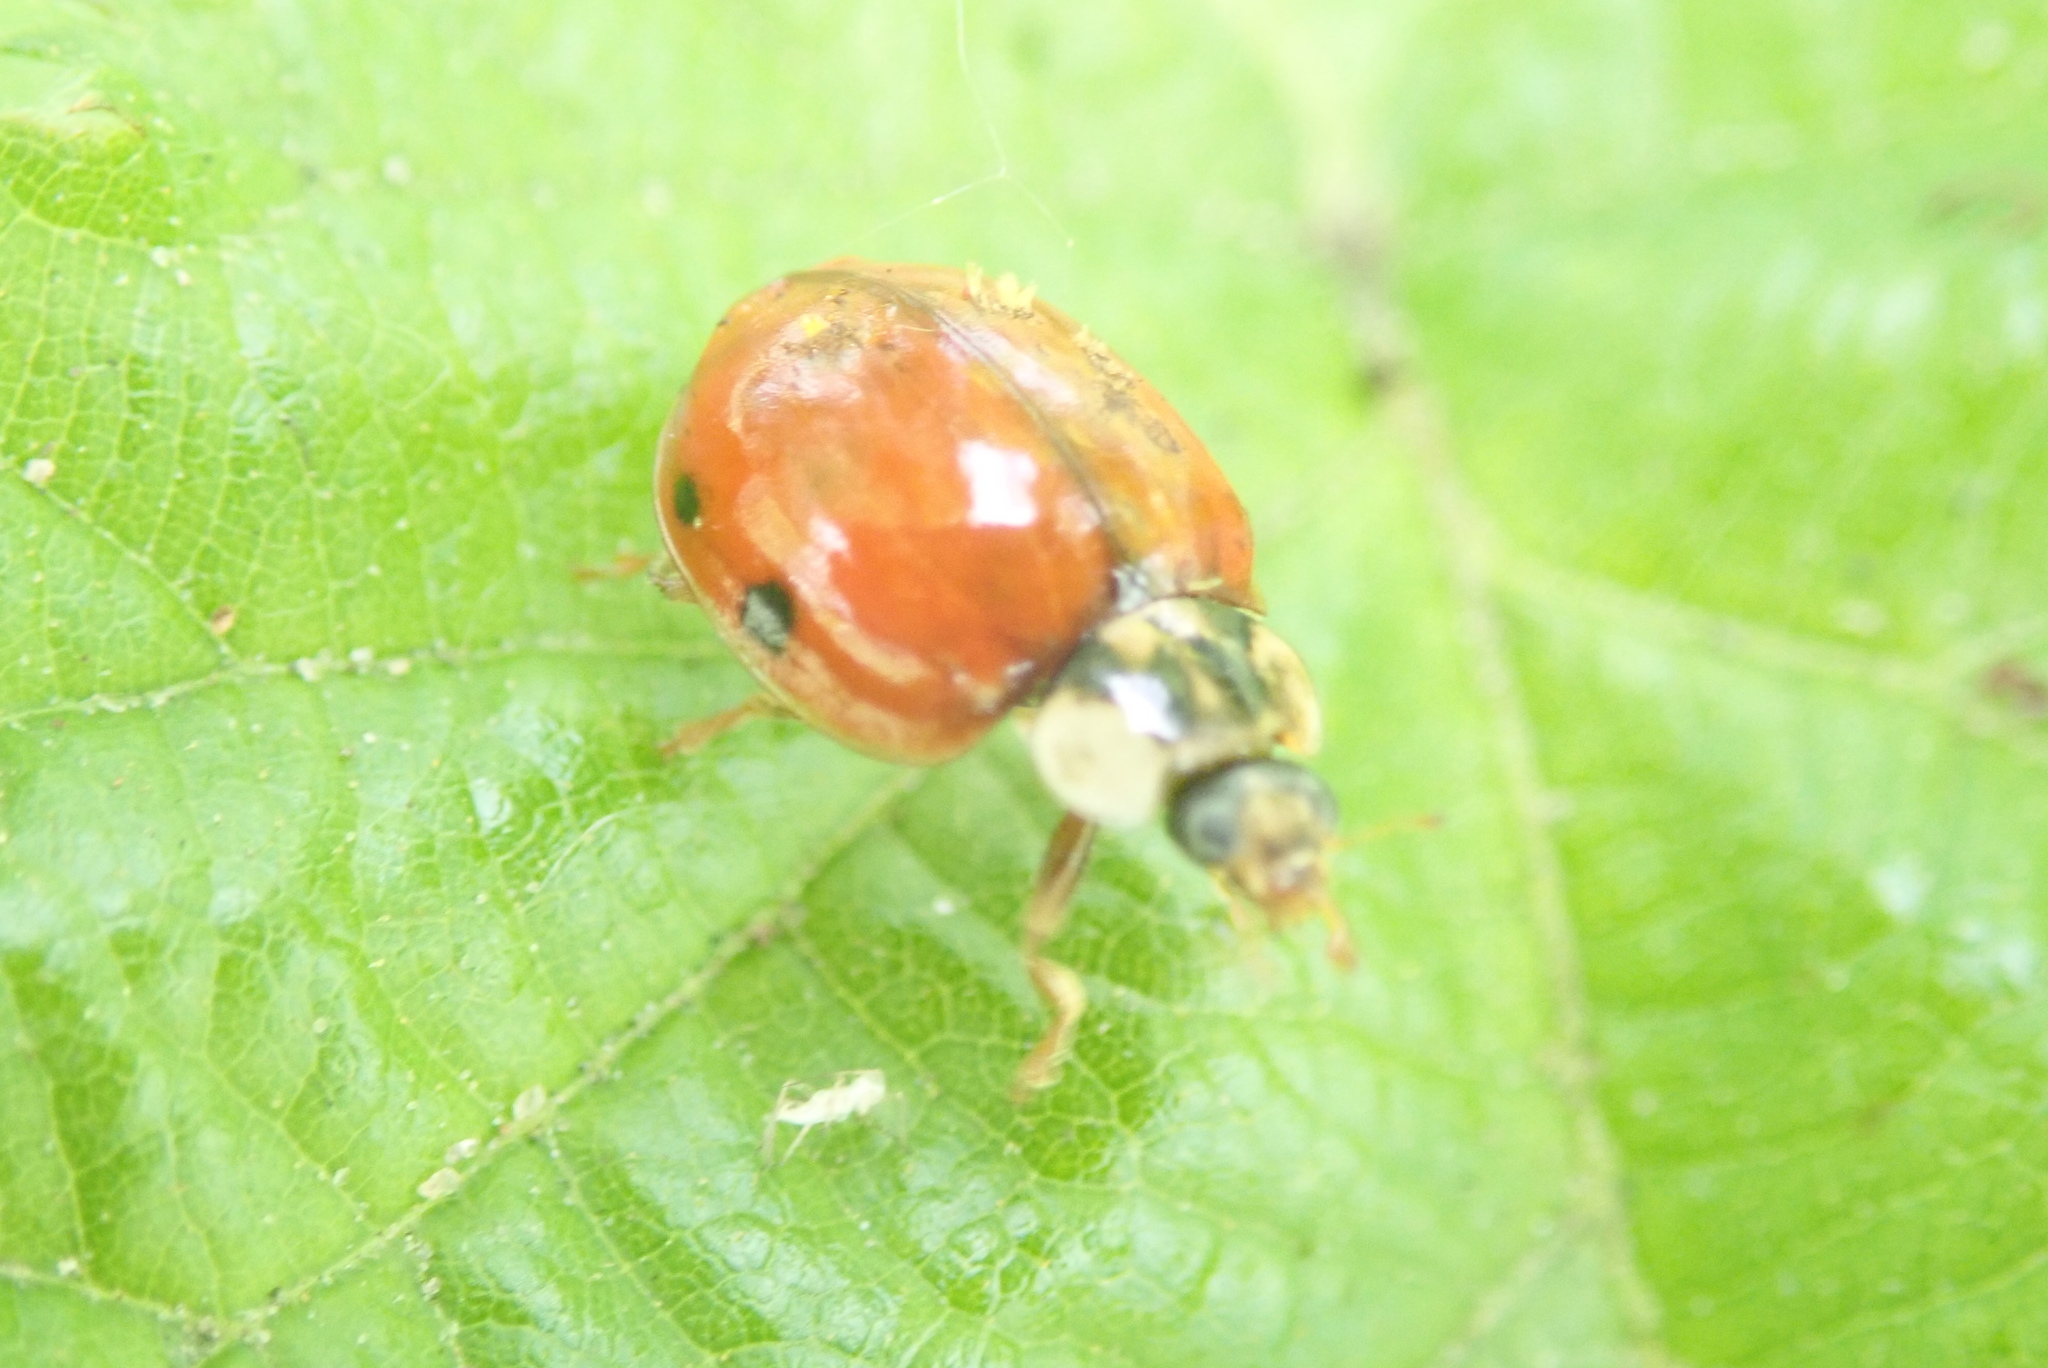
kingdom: Animalia
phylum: Arthropoda
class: Insecta
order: Coleoptera
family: Coccinellidae
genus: Harmonia
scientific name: Harmonia axyridis
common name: Harlequin ladybird
